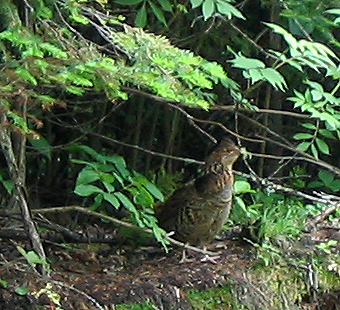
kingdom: Animalia
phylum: Chordata
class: Aves
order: Galliformes
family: Phasianidae
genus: Bonasa
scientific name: Bonasa umbellus
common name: Ruffed grouse
